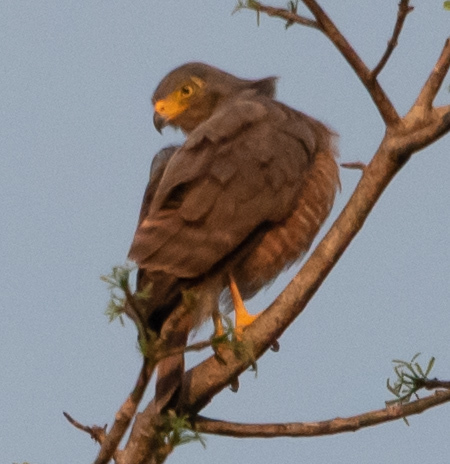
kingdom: Animalia
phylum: Chordata
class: Aves
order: Accipitriformes
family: Accipitridae
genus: Rupornis
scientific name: Rupornis magnirostris
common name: Roadside hawk
